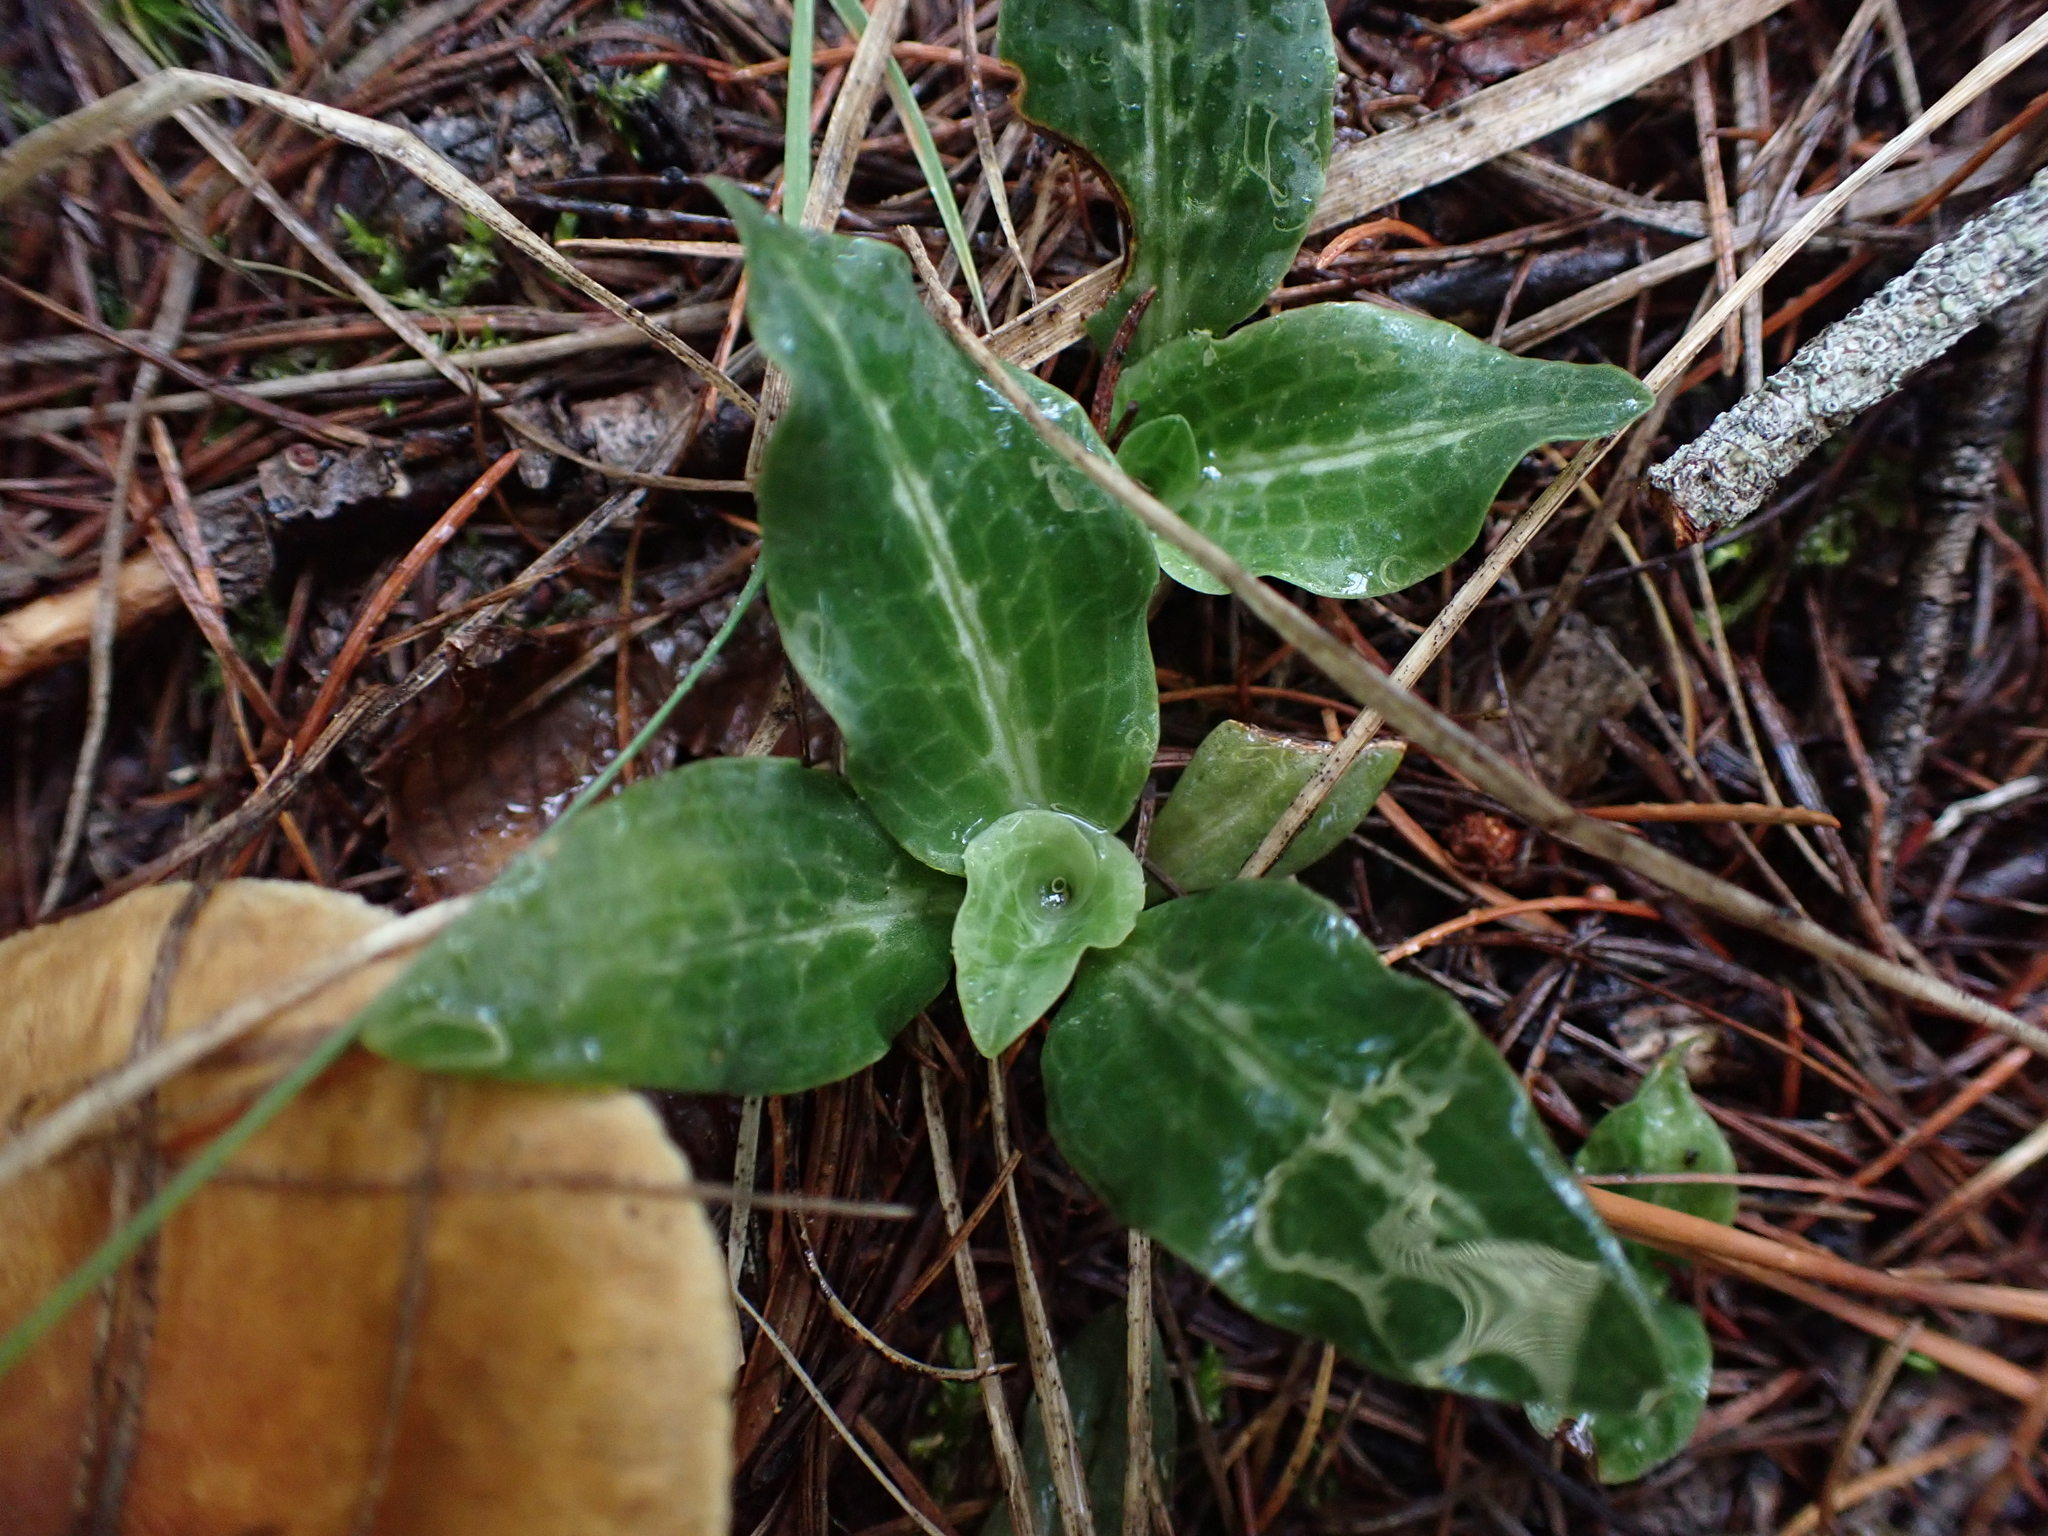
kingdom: Plantae
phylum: Tracheophyta
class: Liliopsida
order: Asparagales
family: Orchidaceae
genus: Goodyera
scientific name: Goodyera oblongifolia
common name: Giant rattlesnake-plantain
